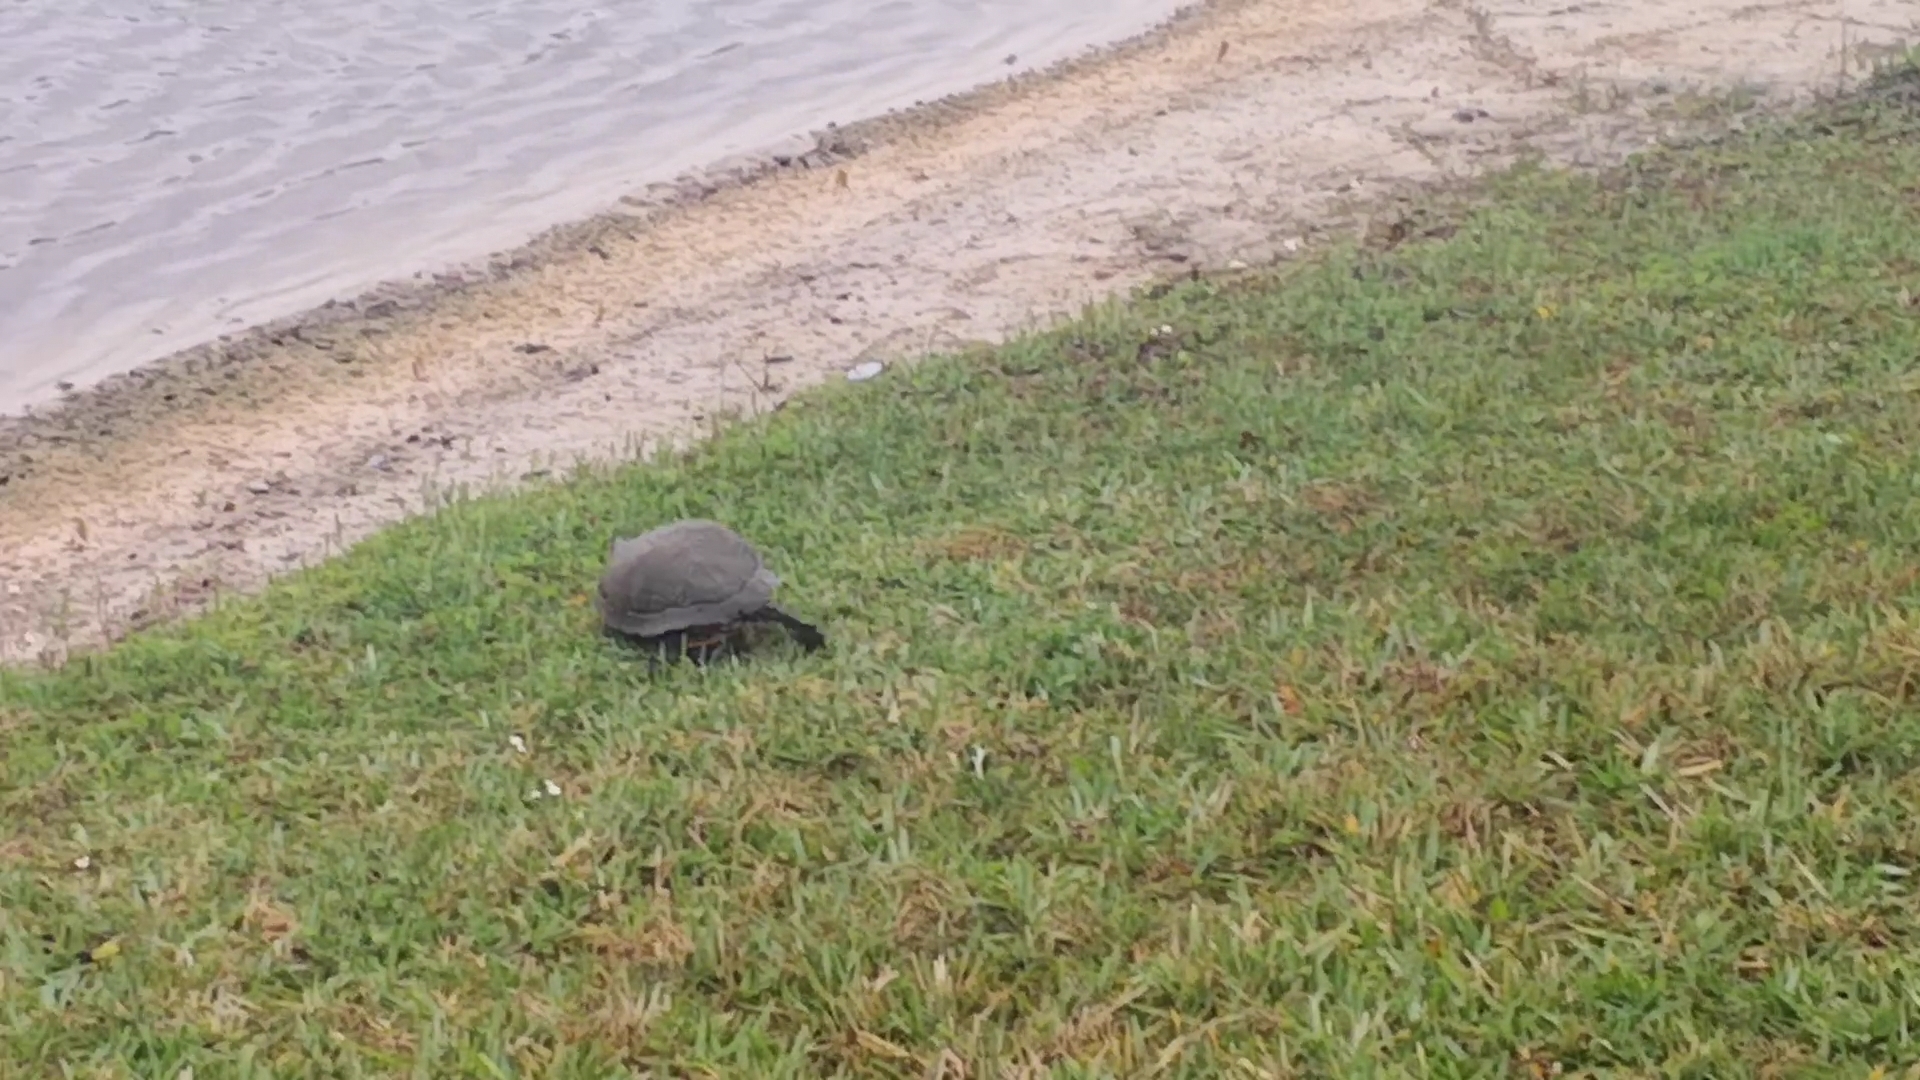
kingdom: Animalia
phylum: Chordata
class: Testudines
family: Emydidae
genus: Trachemys
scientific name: Trachemys scripta
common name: Slider
